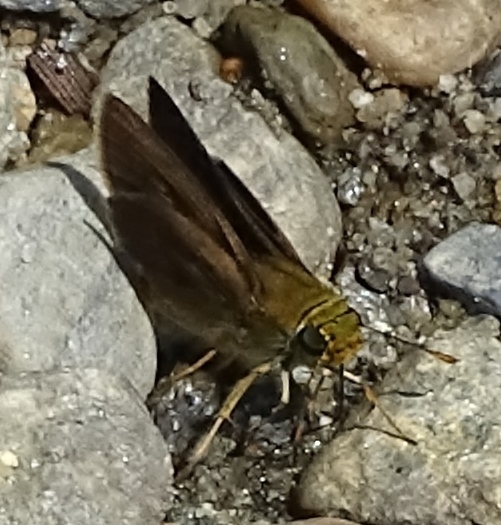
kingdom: Animalia
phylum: Arthropoda
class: Insecta
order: Lepidoptera
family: Hesperiidae
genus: Euphyes
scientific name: Euphyes vestris
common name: Dun skipper
